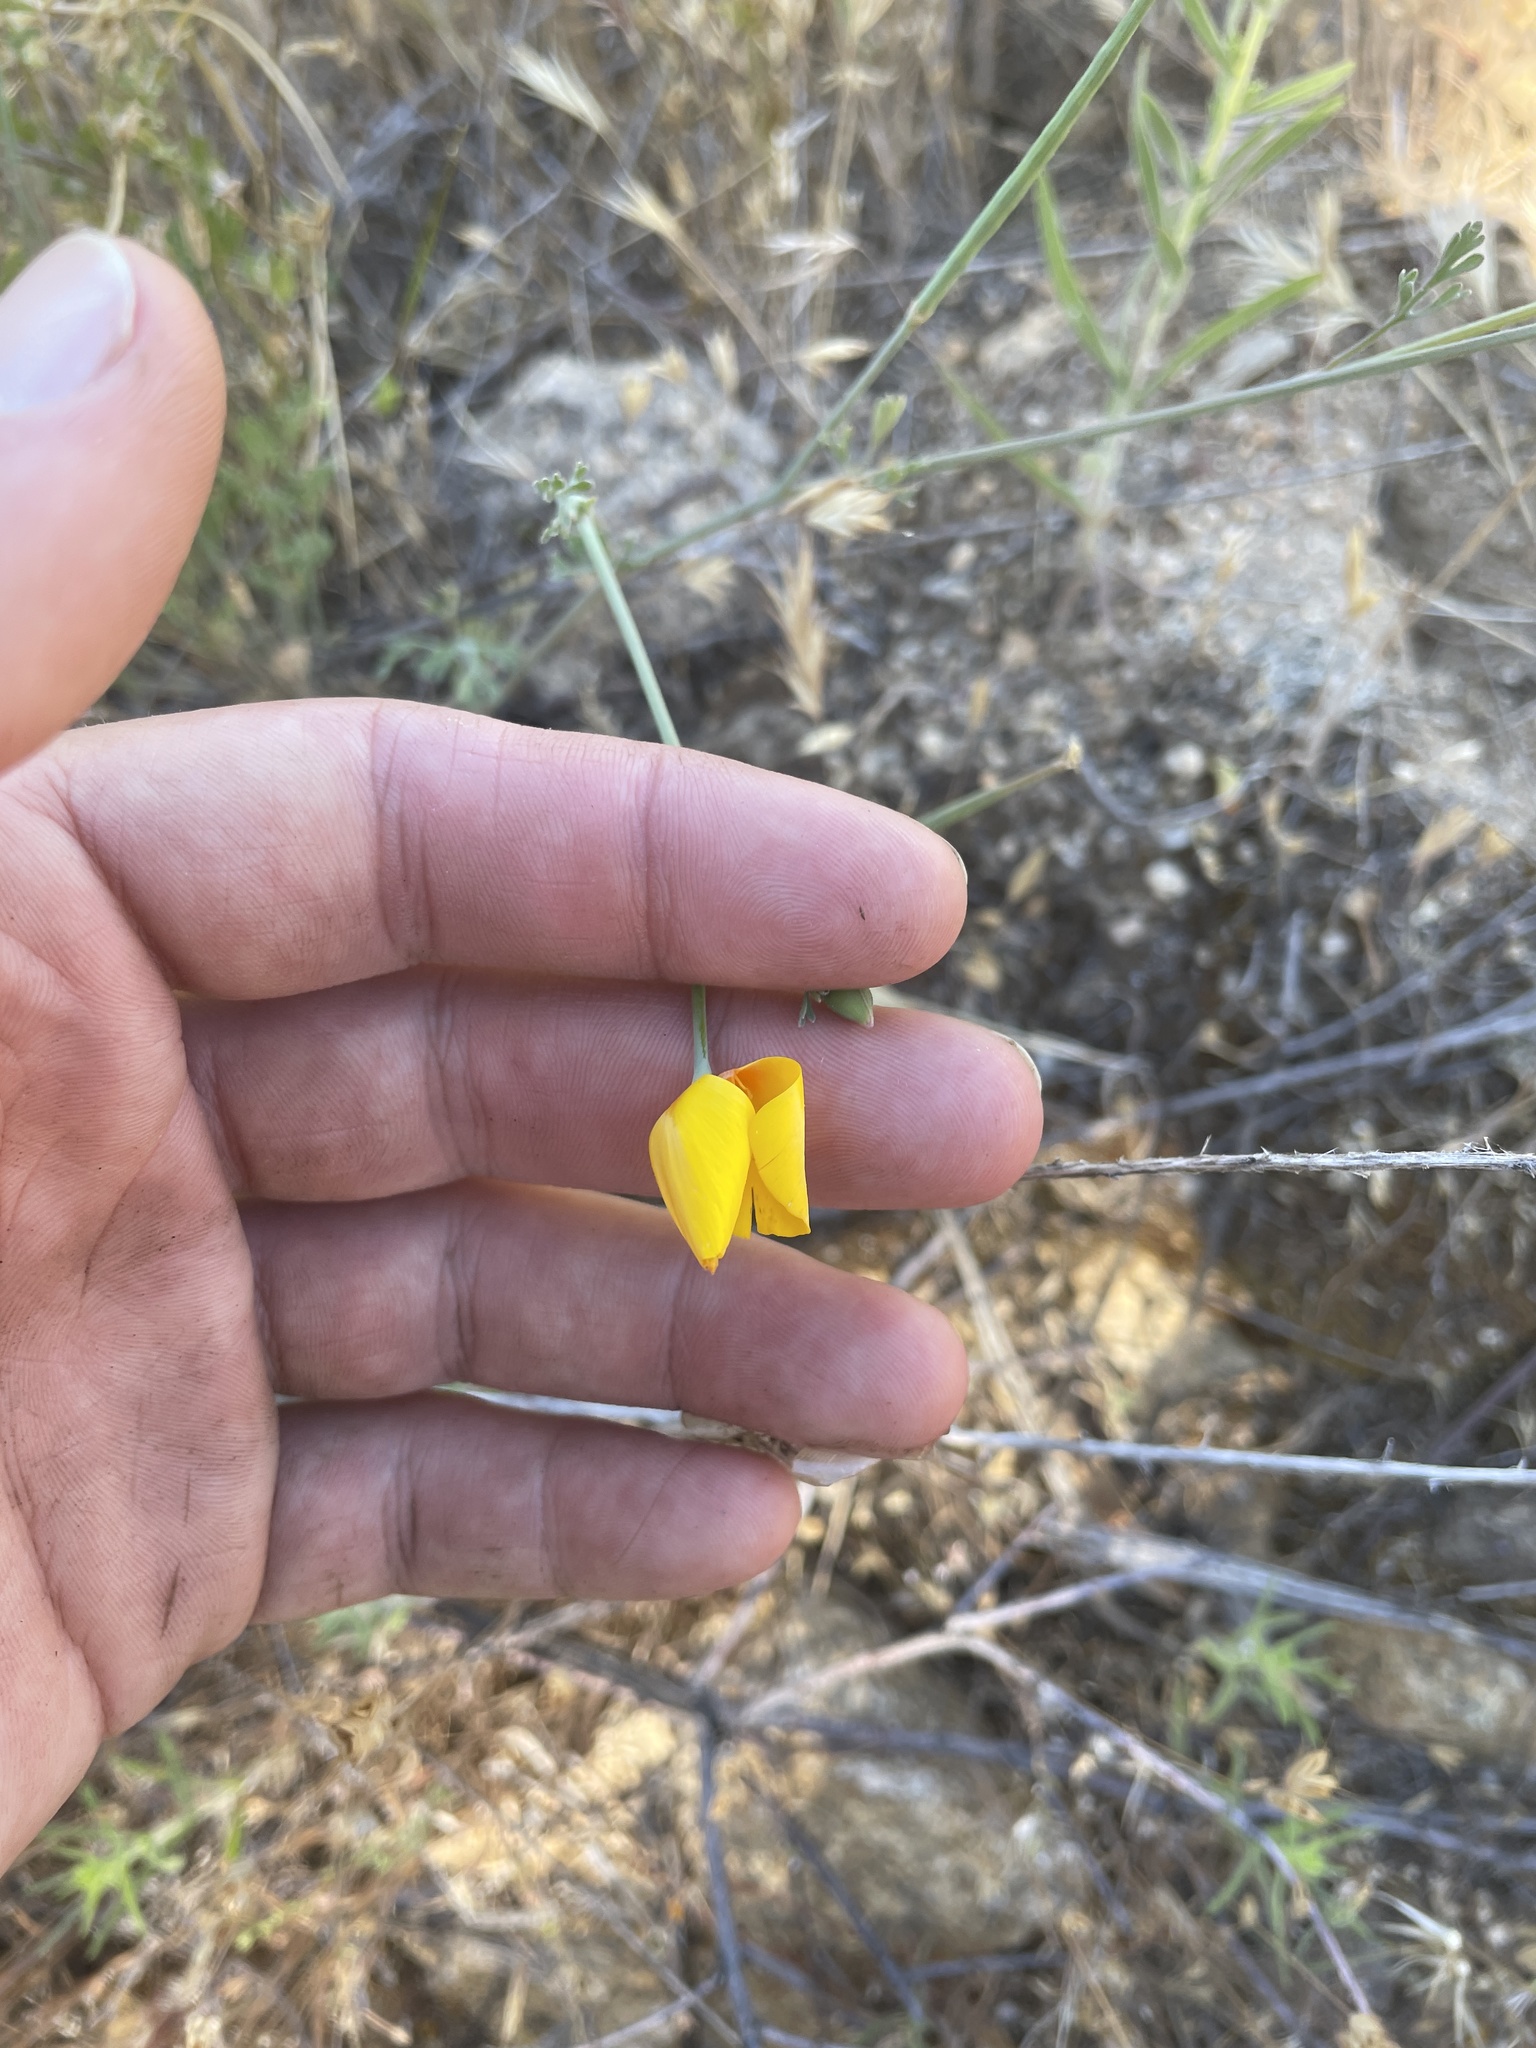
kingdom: Plantae
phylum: Tracheophyta
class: Magnoliopsida
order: Ranunculales
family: Papaveraceae
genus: Eschscholzia
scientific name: Eschscholzia caespitosa
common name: Tufted california-poppy
